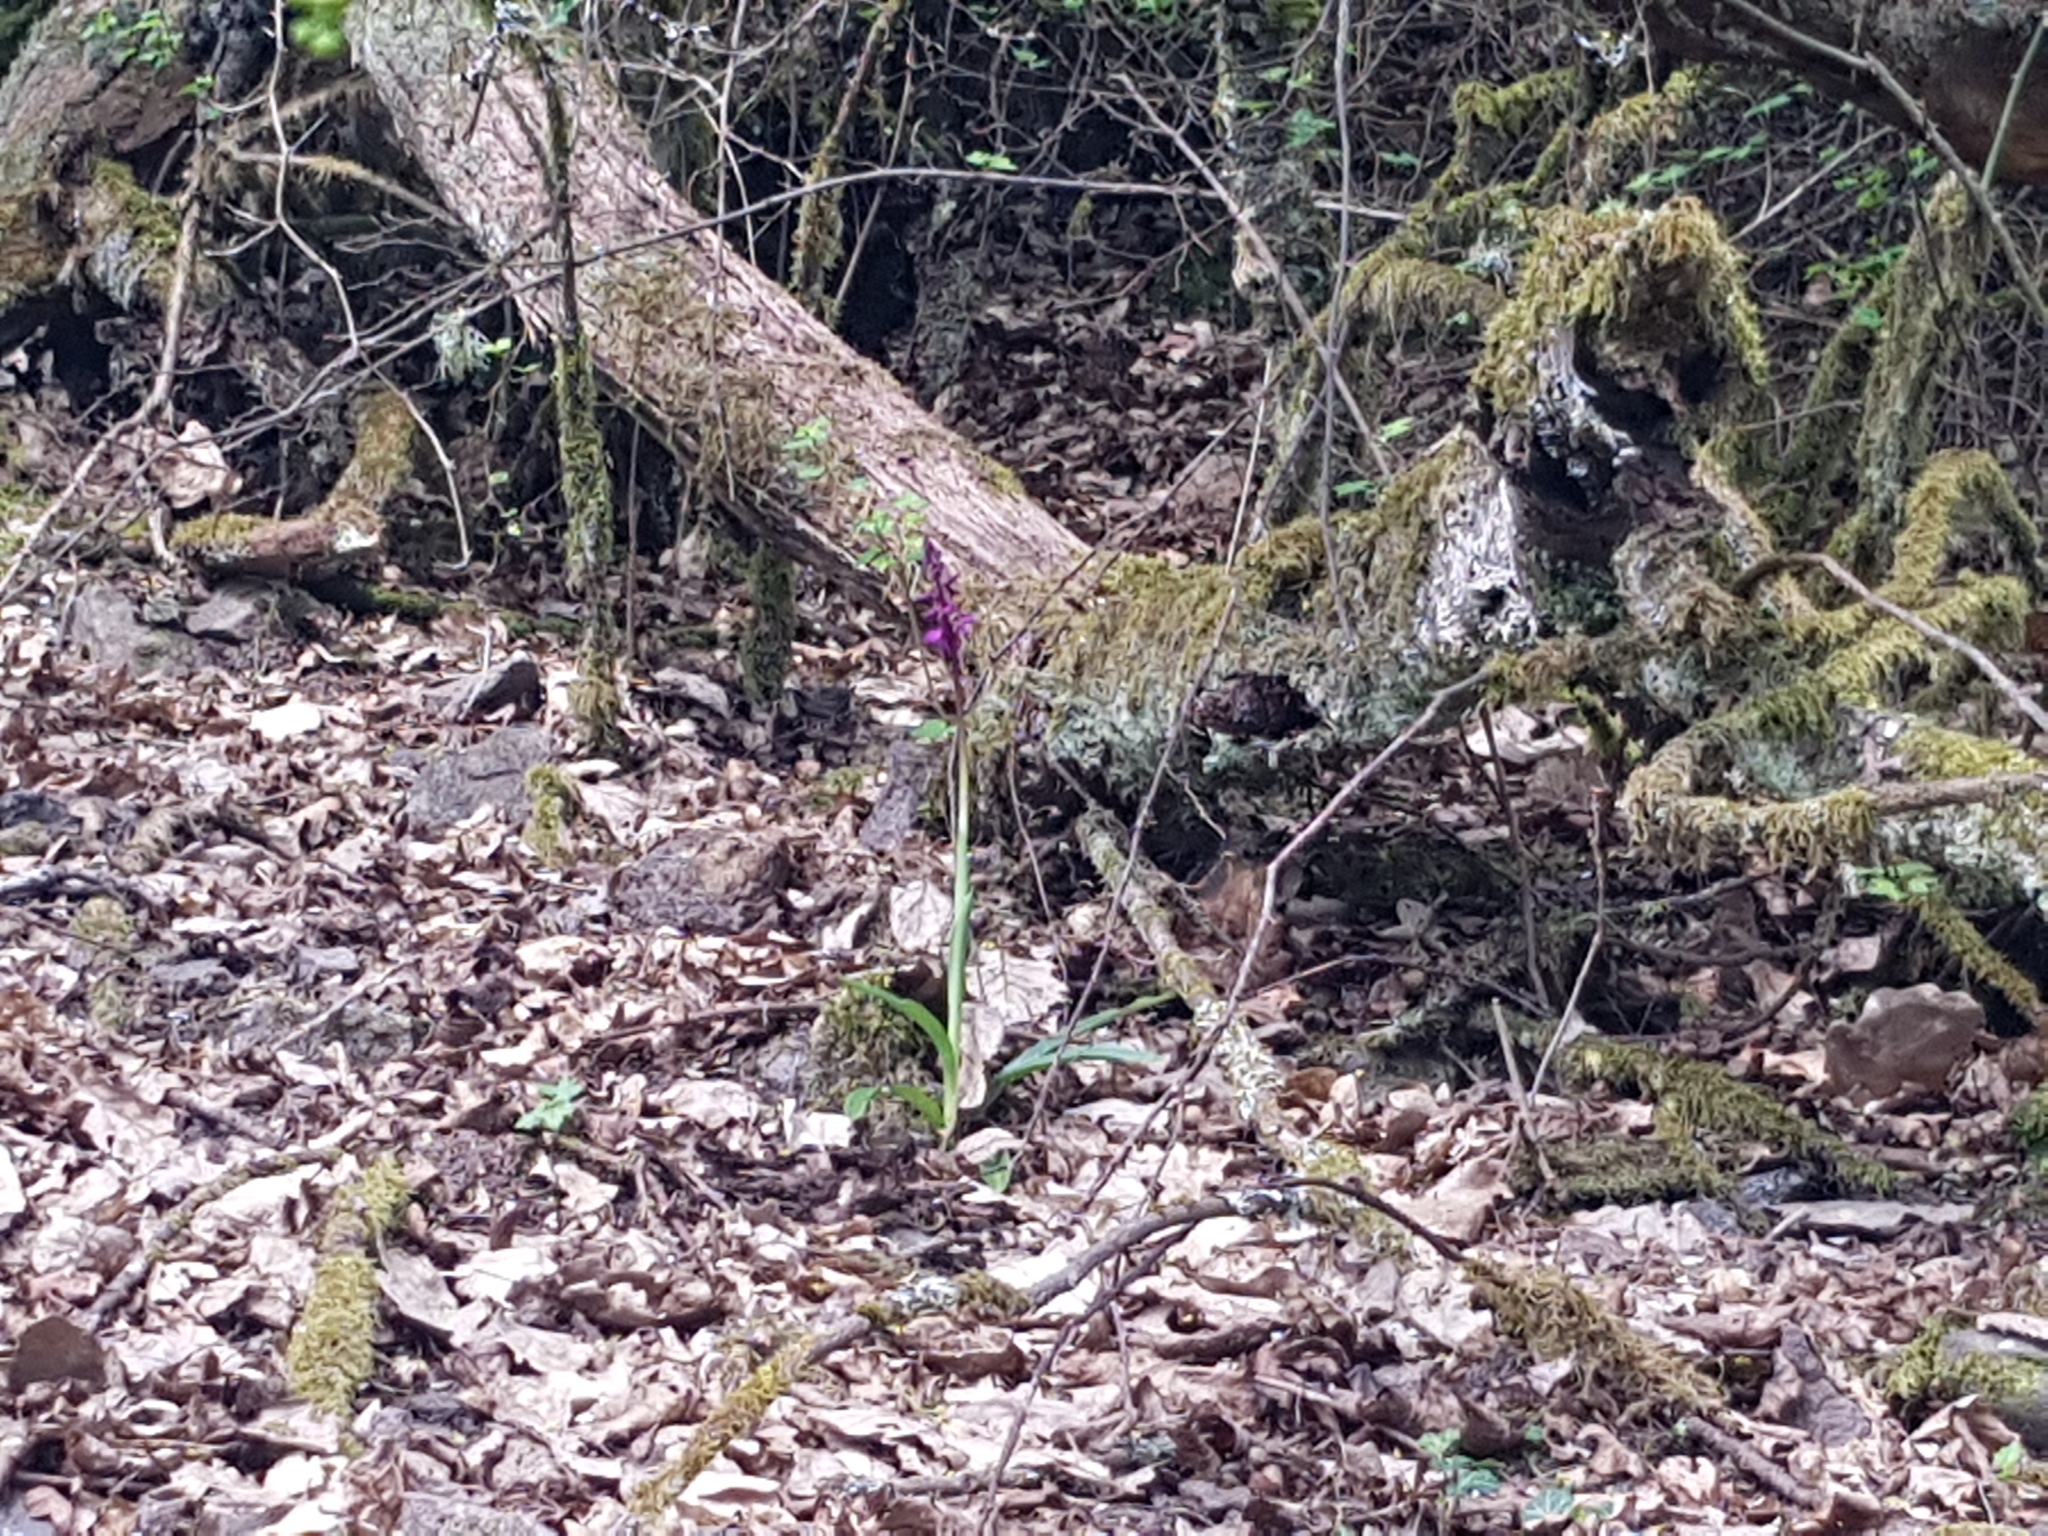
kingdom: Plantae
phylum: Tracheophyta
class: Liliopsida
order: Asparagales
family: Orchidaceae
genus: Orchis
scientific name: Orchis mascula
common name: Early-purple orchid
